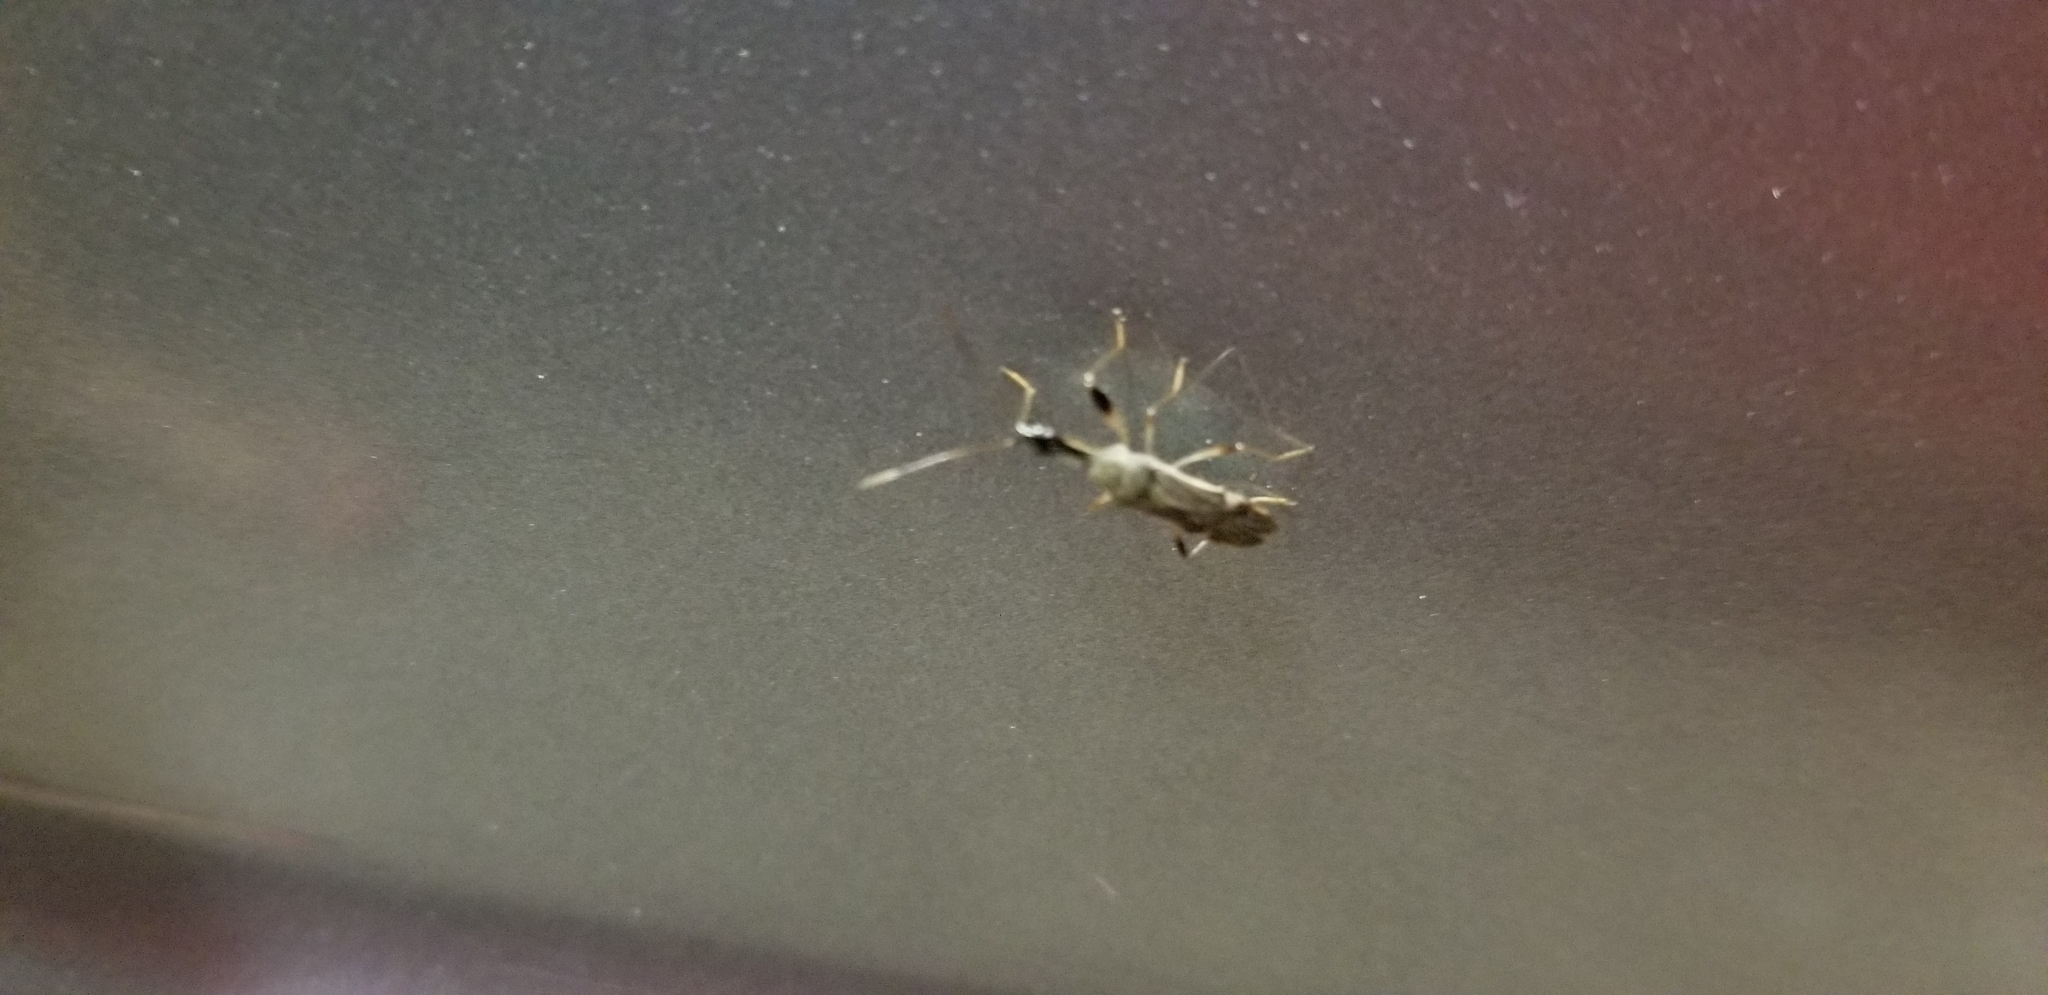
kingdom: Animalia
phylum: Arthropoda
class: Insecta
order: Hemiptera
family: Rhyparochromidae
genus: Myodocha
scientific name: Myodocha serripes
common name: Long-necked seed bug
